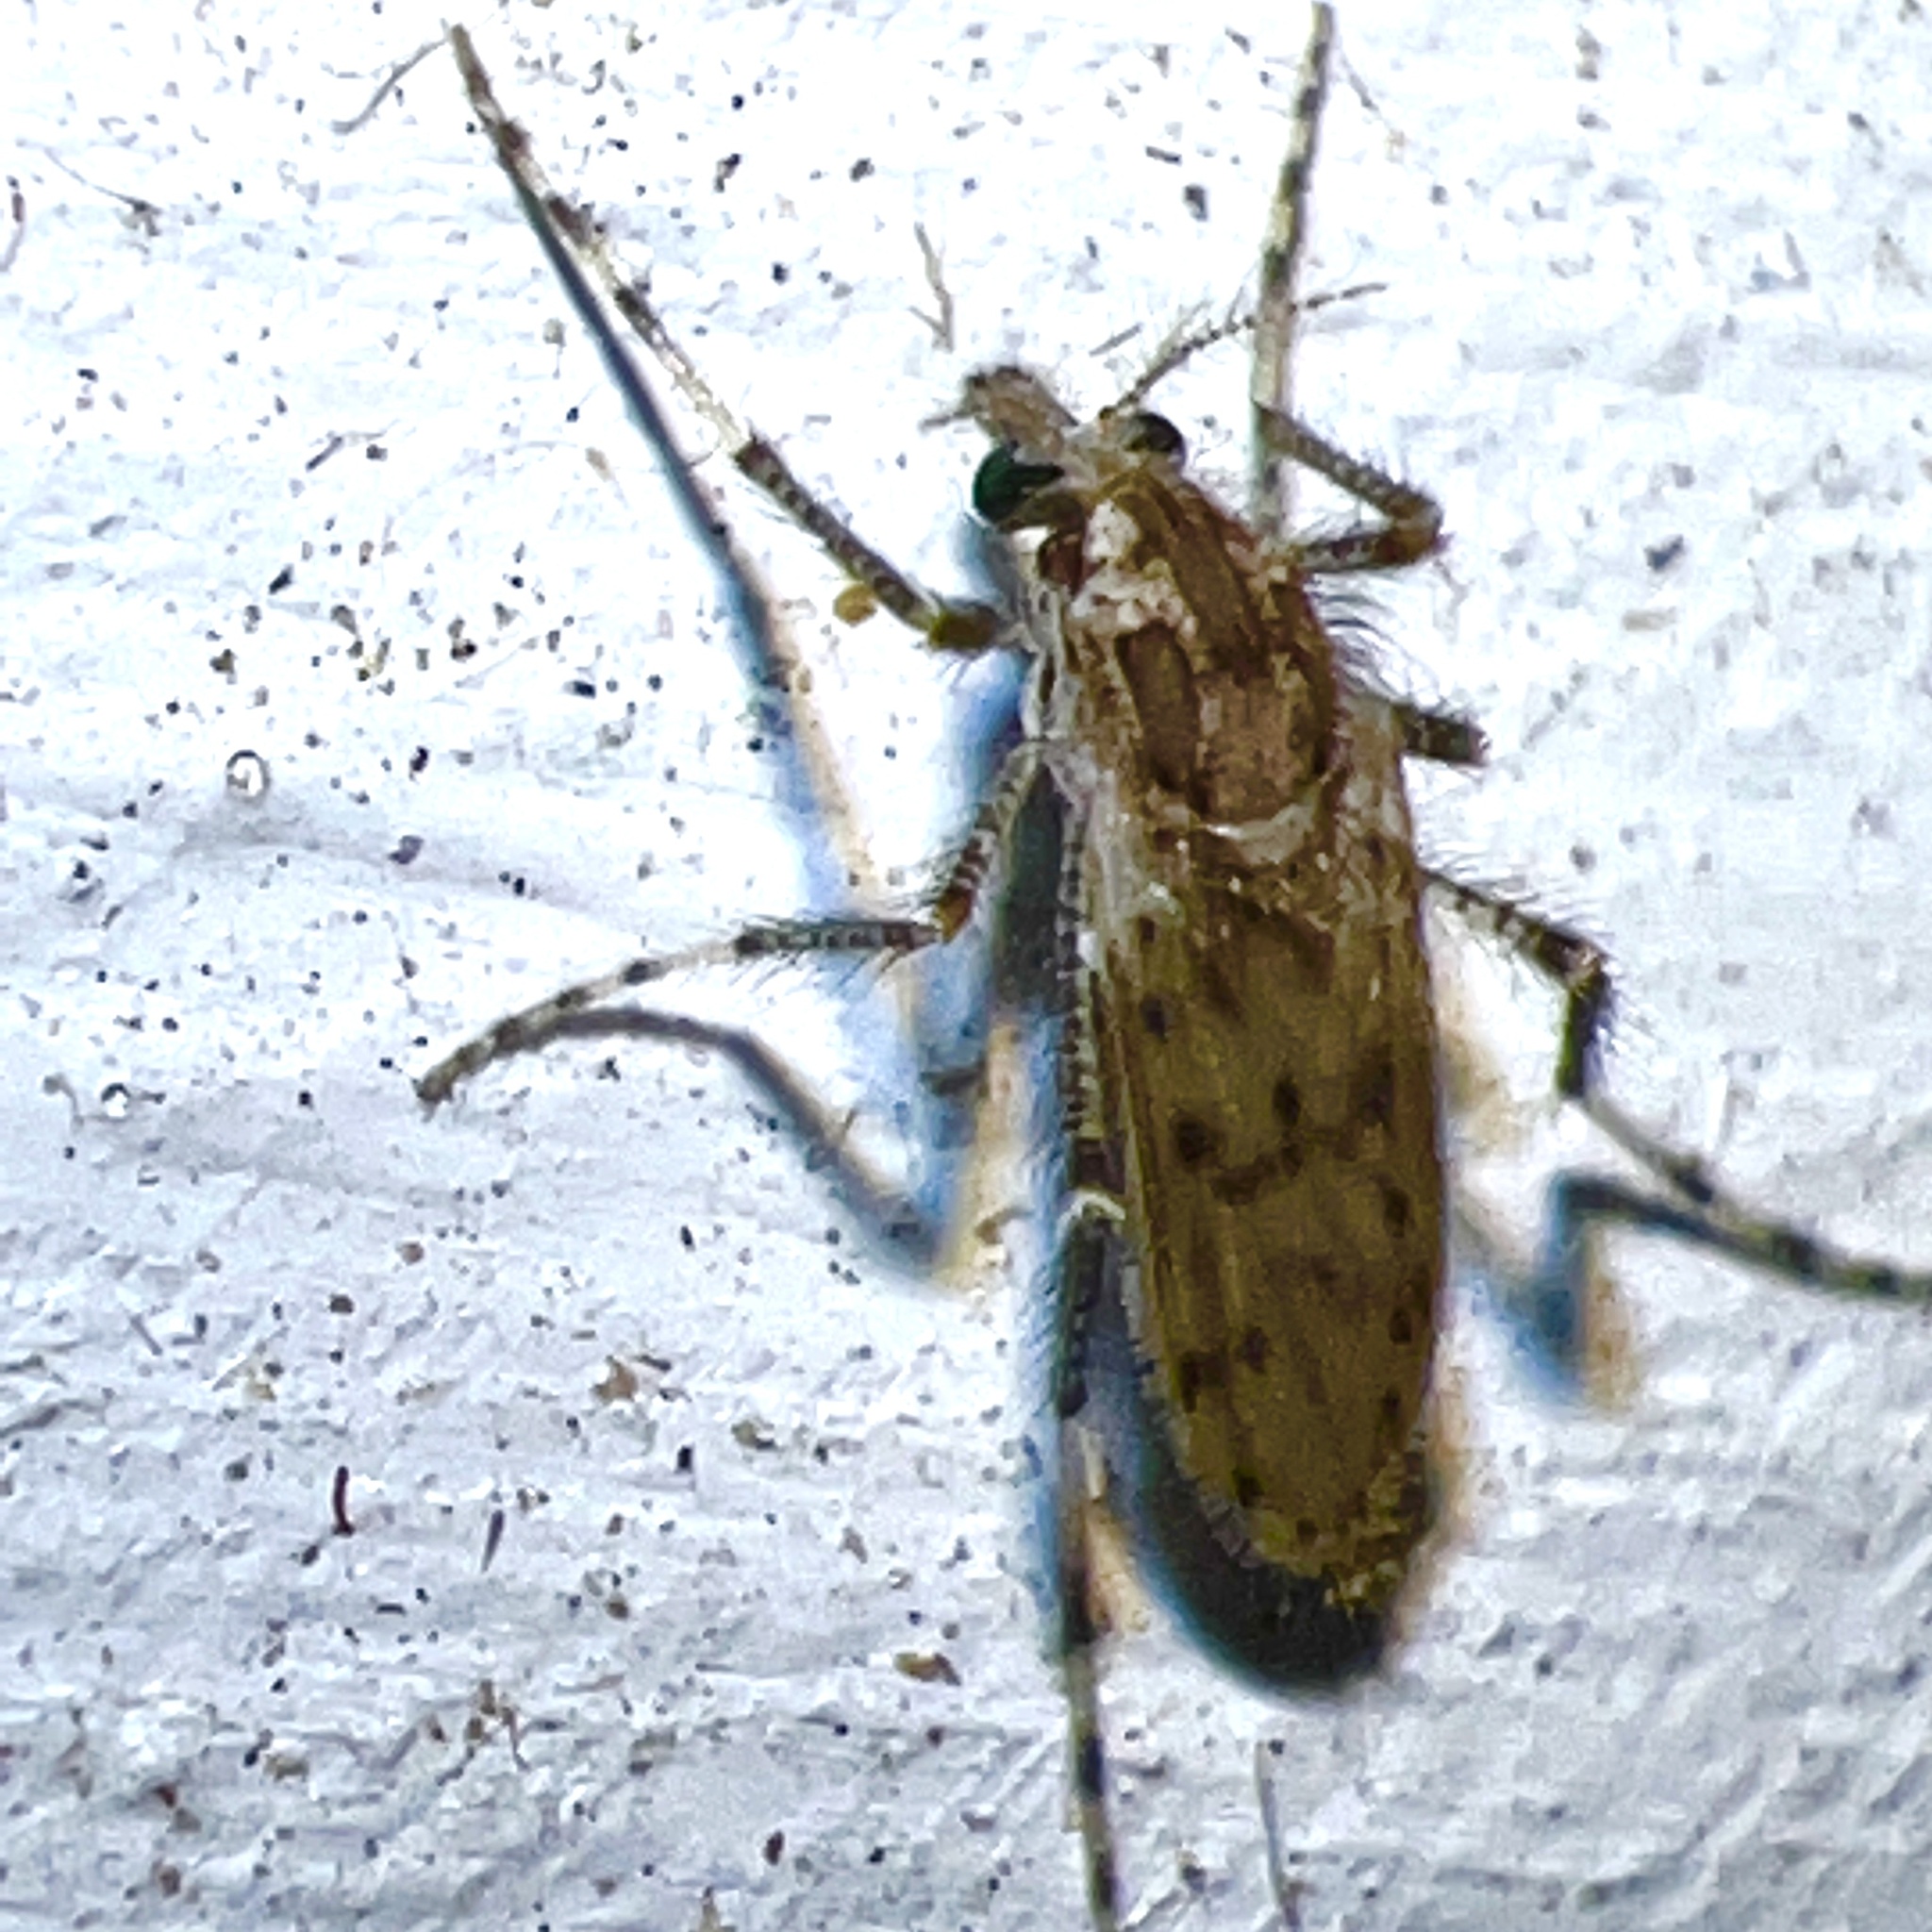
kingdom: Animalia
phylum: Arthropoda
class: Insecta
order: Diptera
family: Chaoboridae
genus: Chaoborus
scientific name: Chaoborus punctipennis
